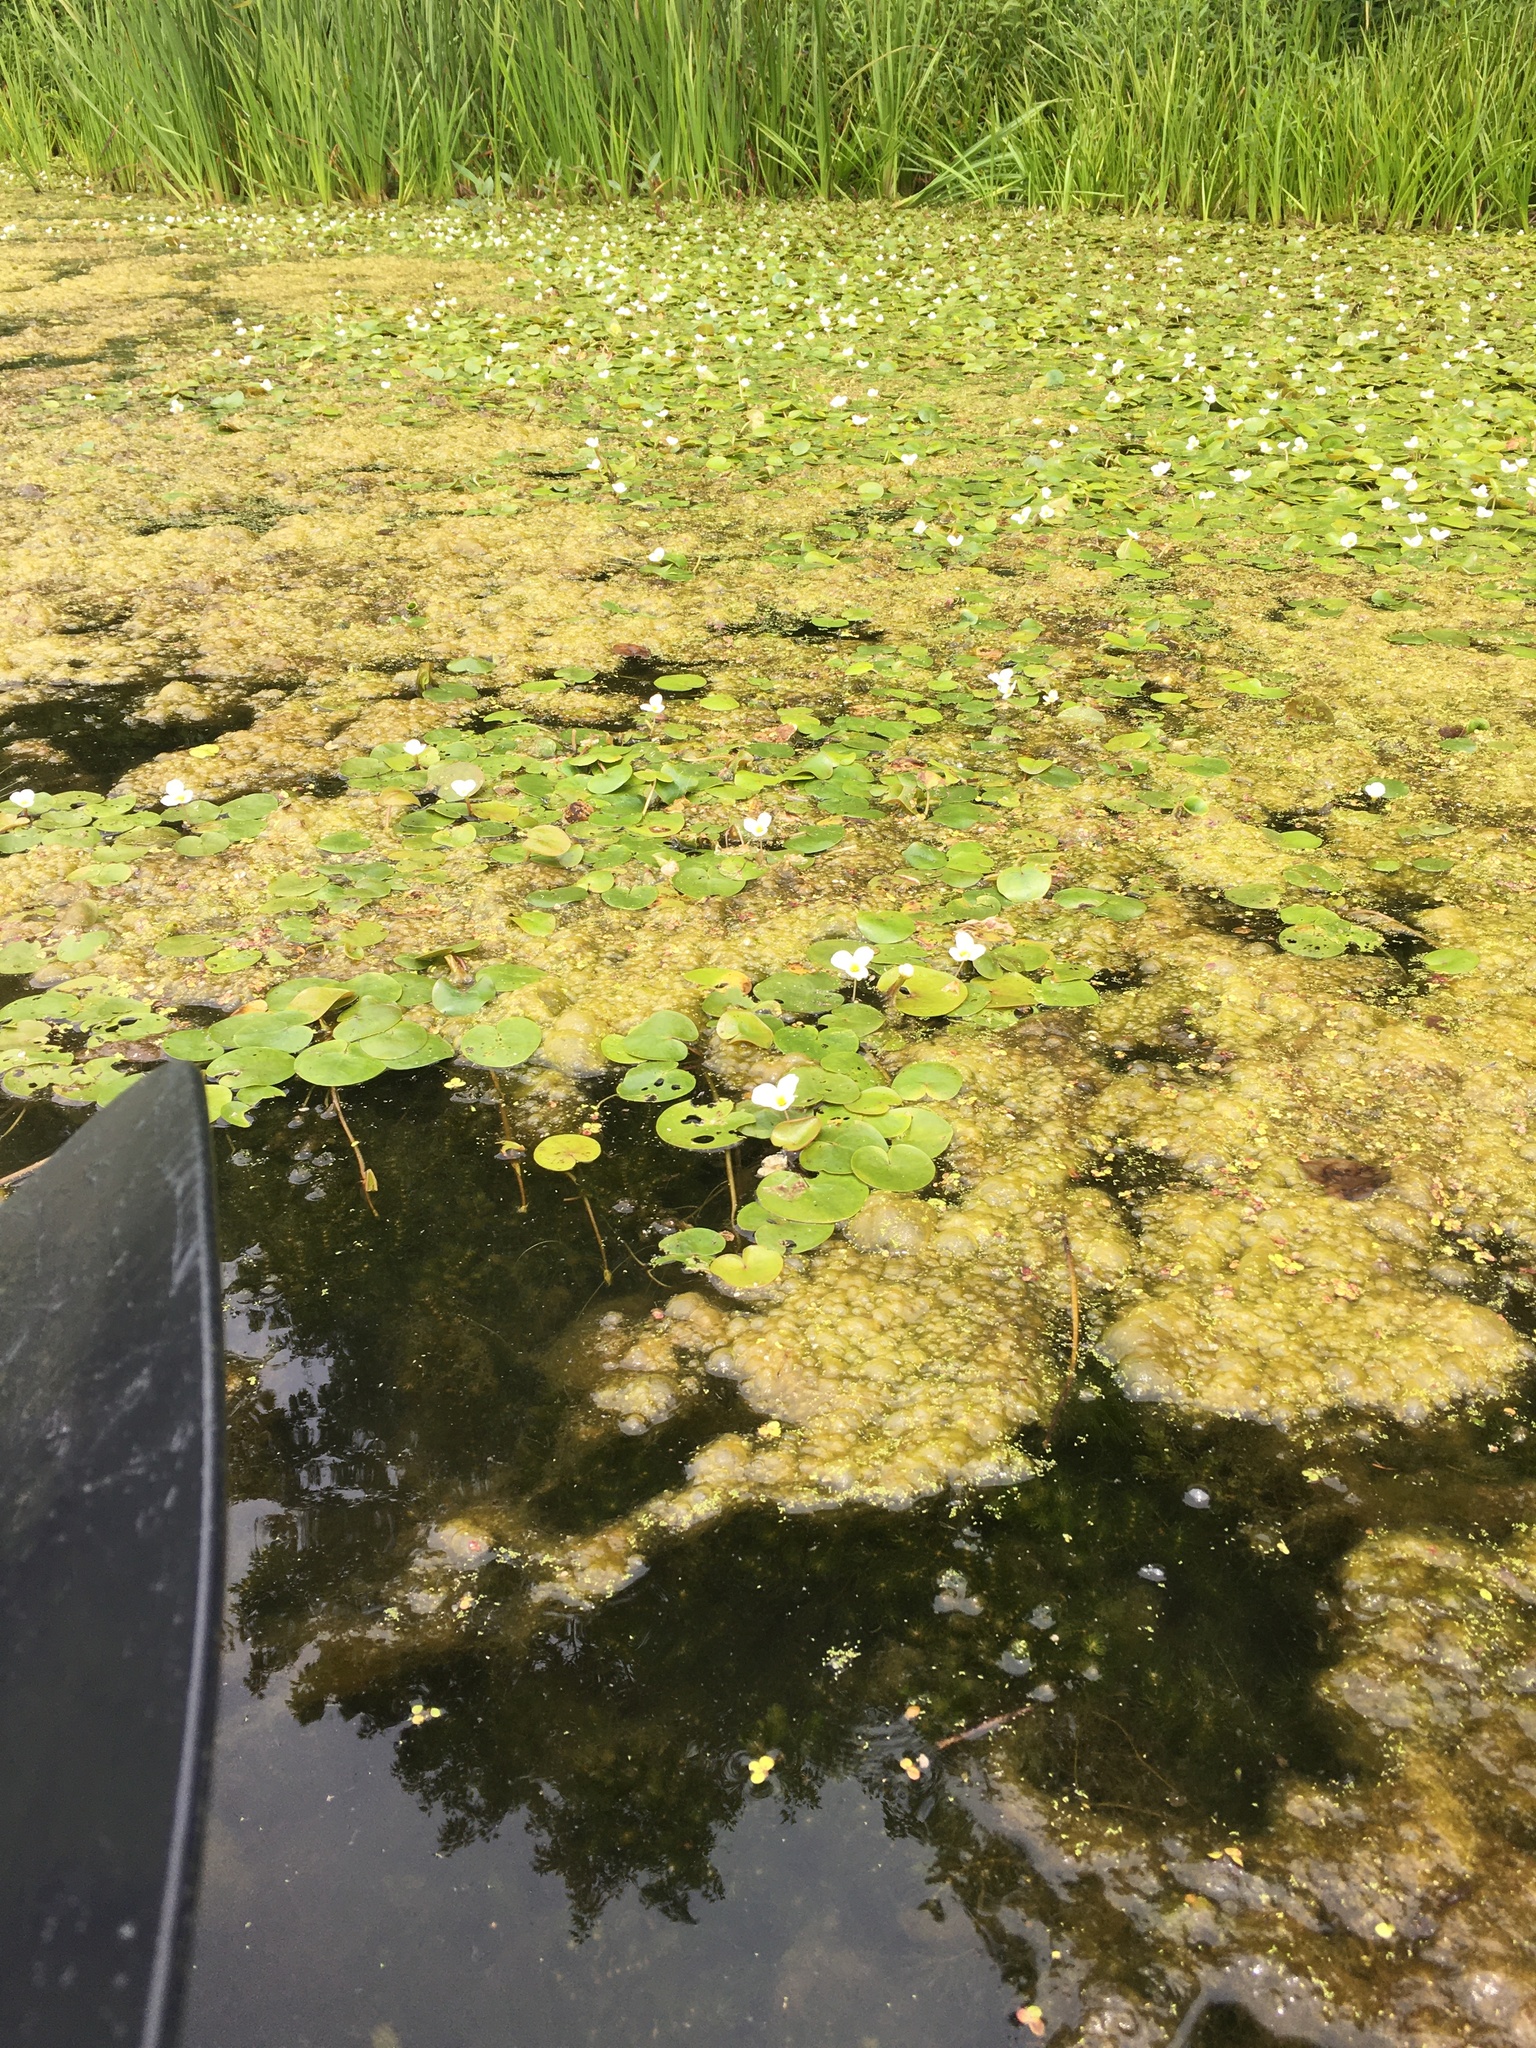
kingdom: Plantae
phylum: Tracheophyta
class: Liliopsida
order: Alismatales
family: Hydrocharitaceae
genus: Hydrocharis
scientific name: Hydrocharis morsus-ranae
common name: Frogbit
